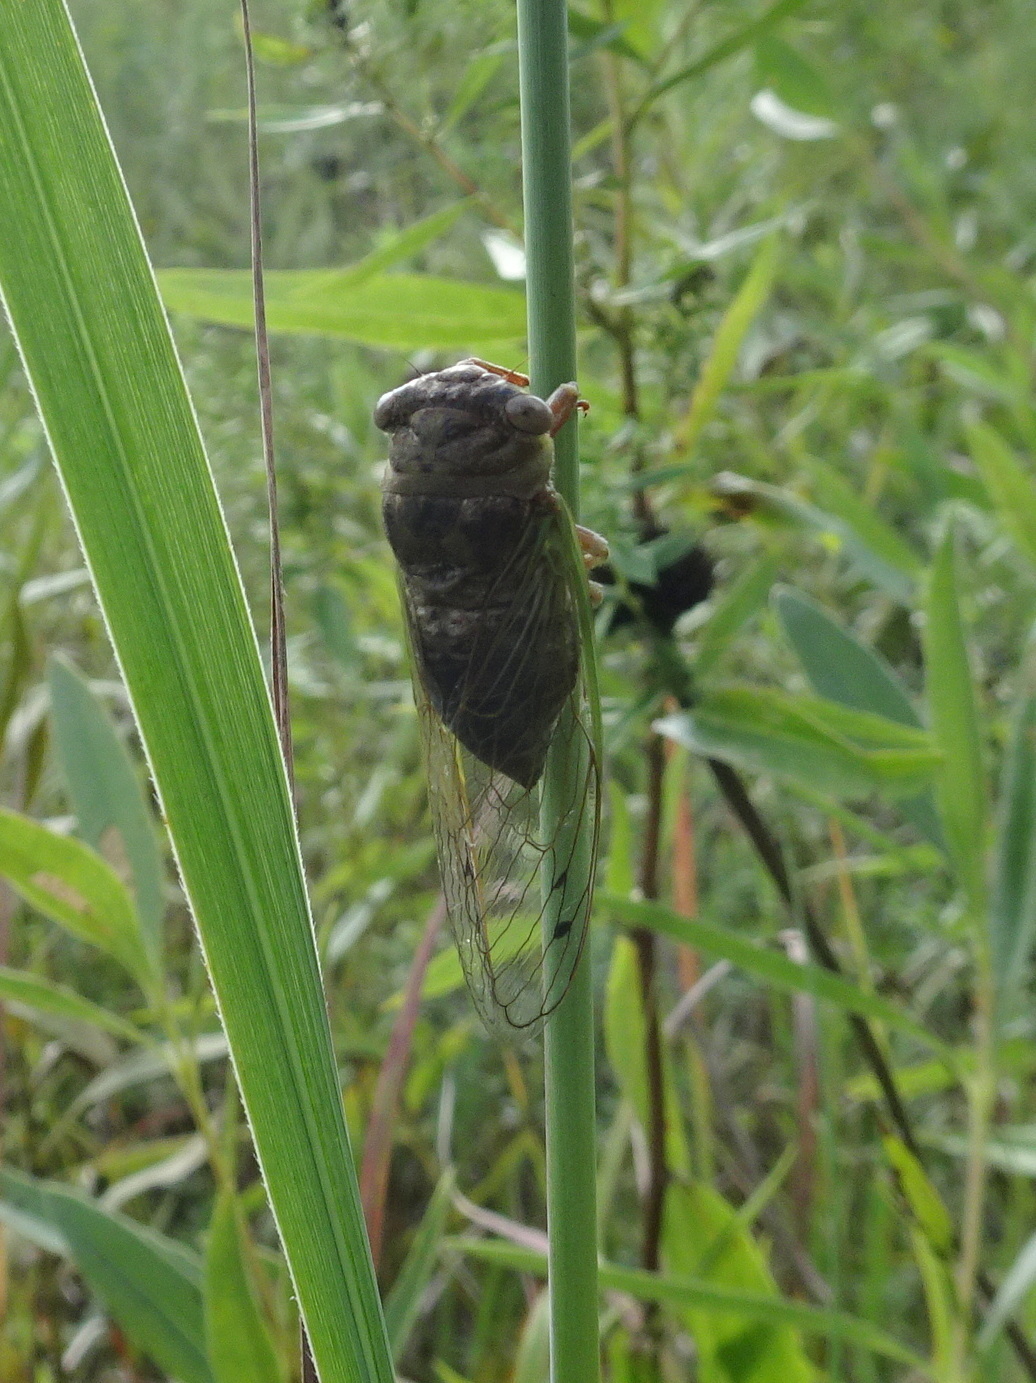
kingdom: Animalia
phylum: Arthropoda
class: Insecta
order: Hemiptera
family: Cicadidae
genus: Neotibicen
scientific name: Neotibicen aurifer
